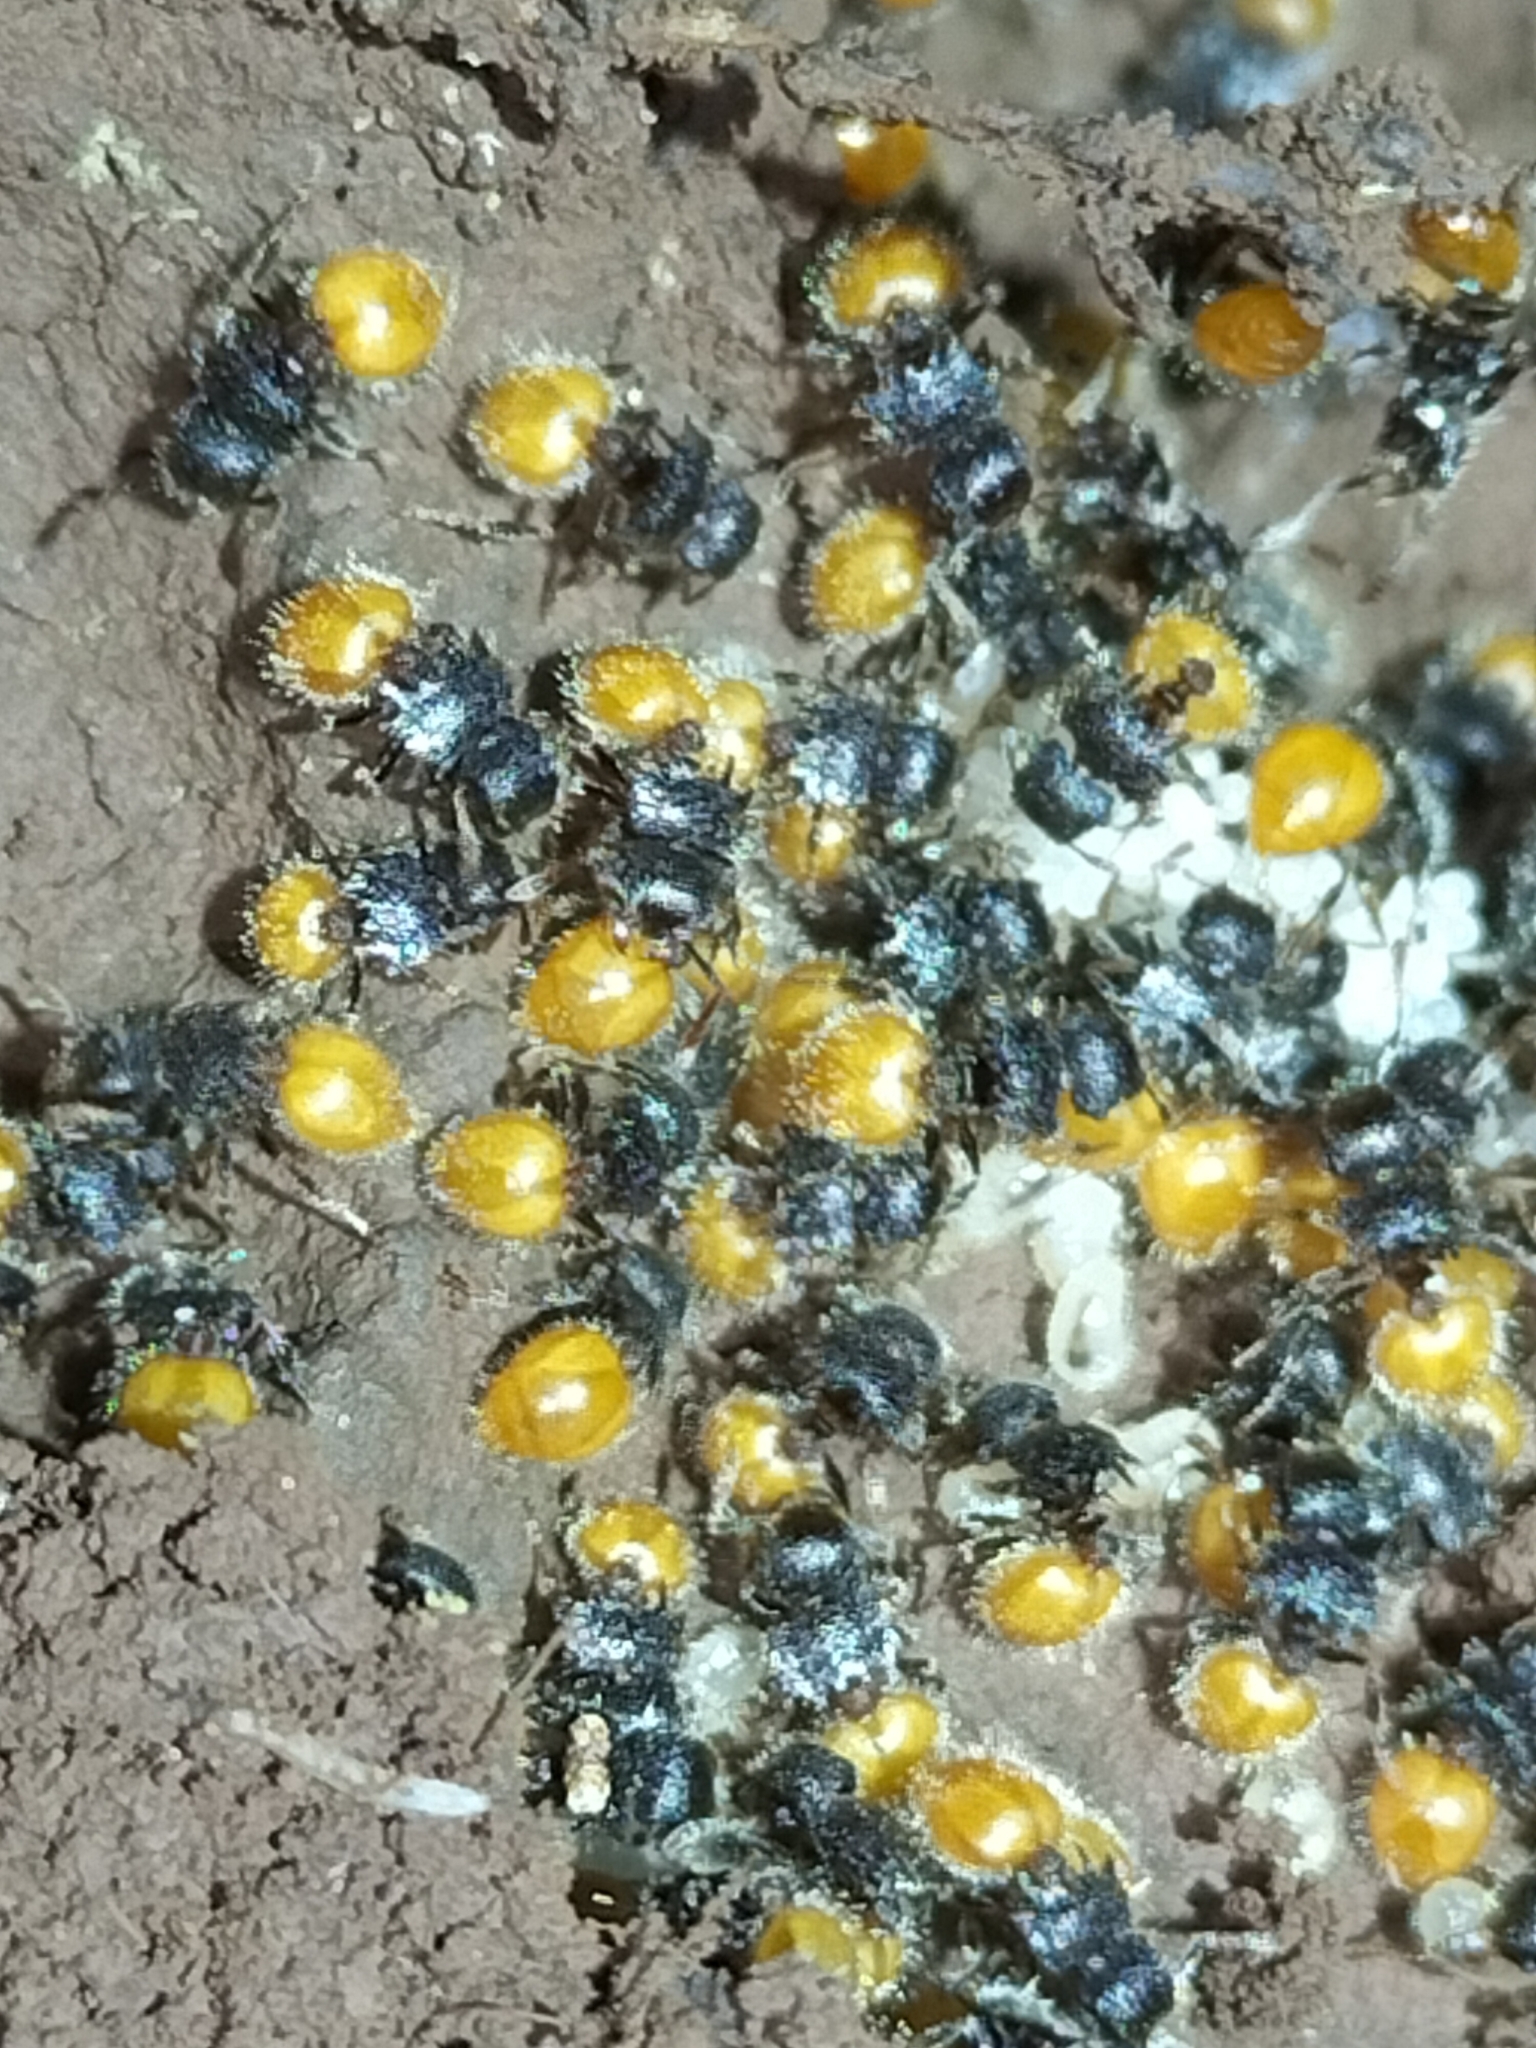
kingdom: Animalia
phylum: Arthropoda
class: Insecta
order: Hymenoptera
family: Formicidae
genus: Meranoplus
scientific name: Meranoplus hirsutus
